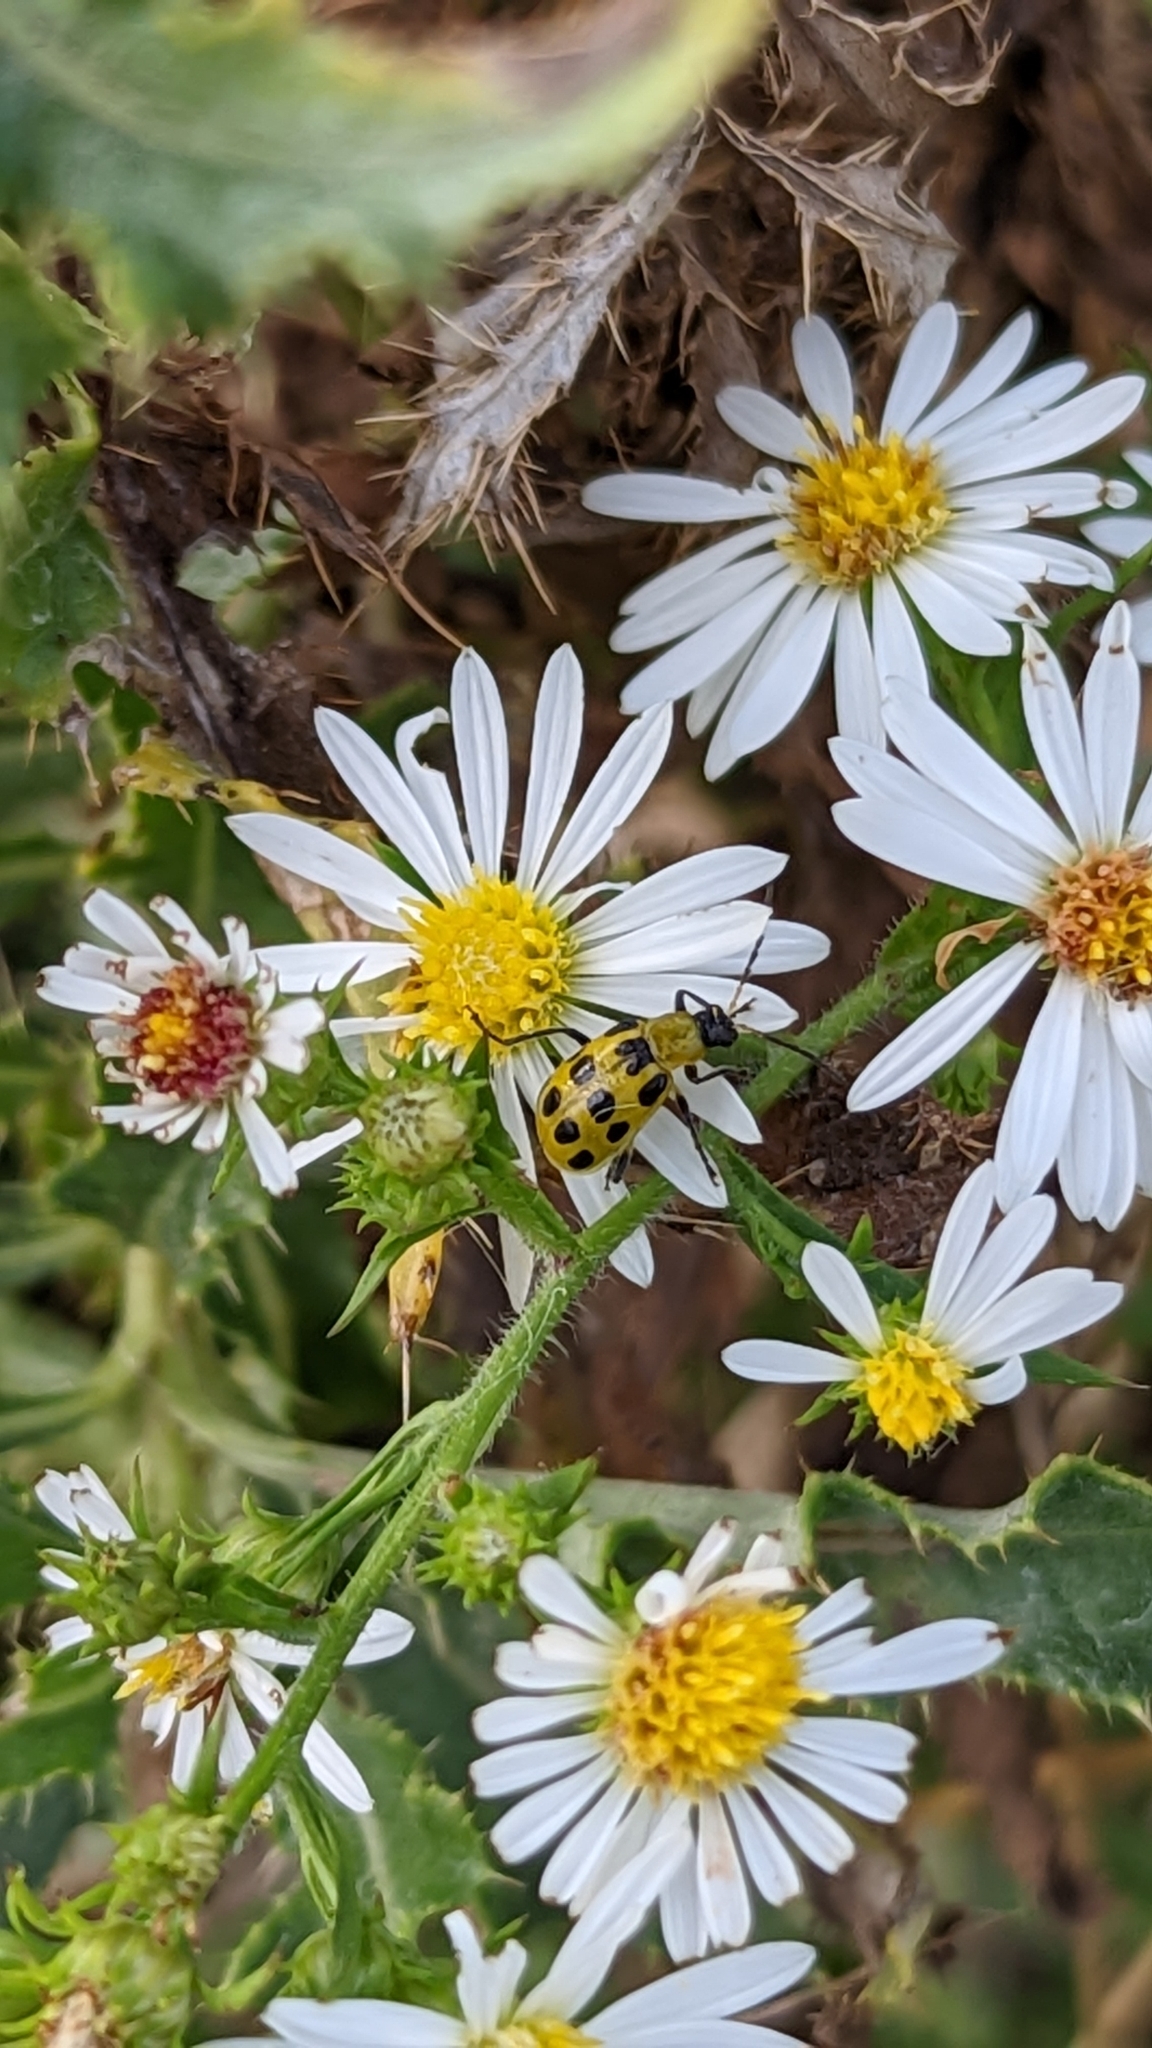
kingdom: Animalia
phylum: Arthropoda
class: Insecta
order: Coleoptera
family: Chrysomelidae
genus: Diabrotica
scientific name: Diabrotica undecimpunctata
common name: Spotted cucumber beetle
